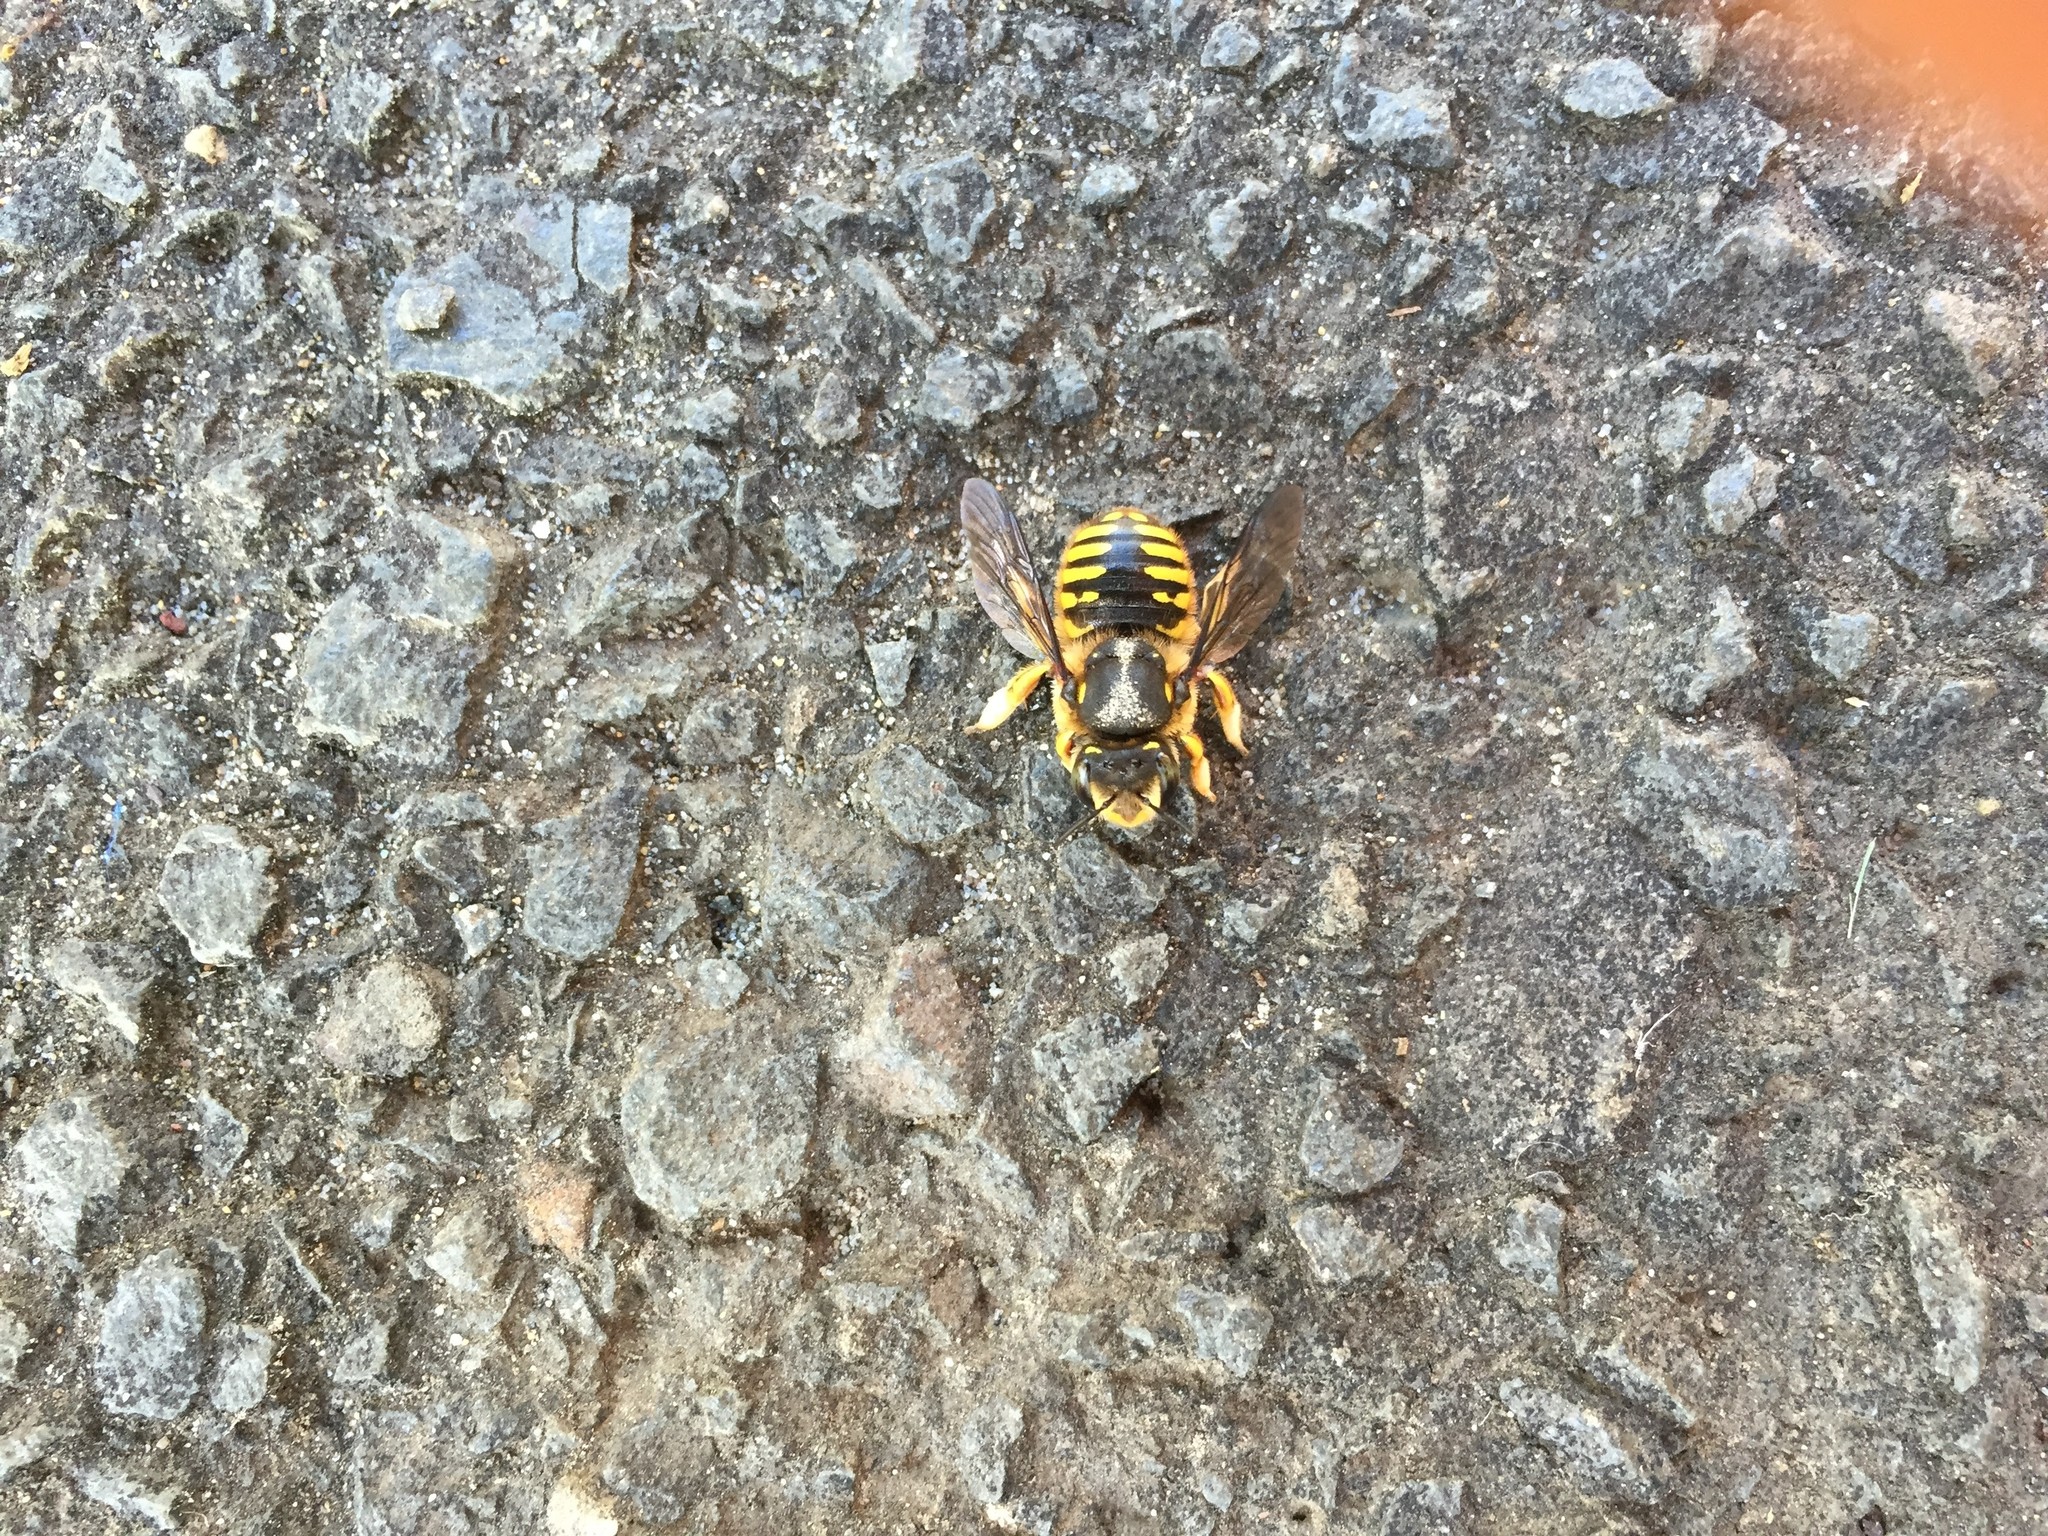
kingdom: Animalia
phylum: Arthropoda
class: Insecta
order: Hymenoptera
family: Megachilidae
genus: Anthidium
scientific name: Anthidium manicatum
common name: Wool carder bee
